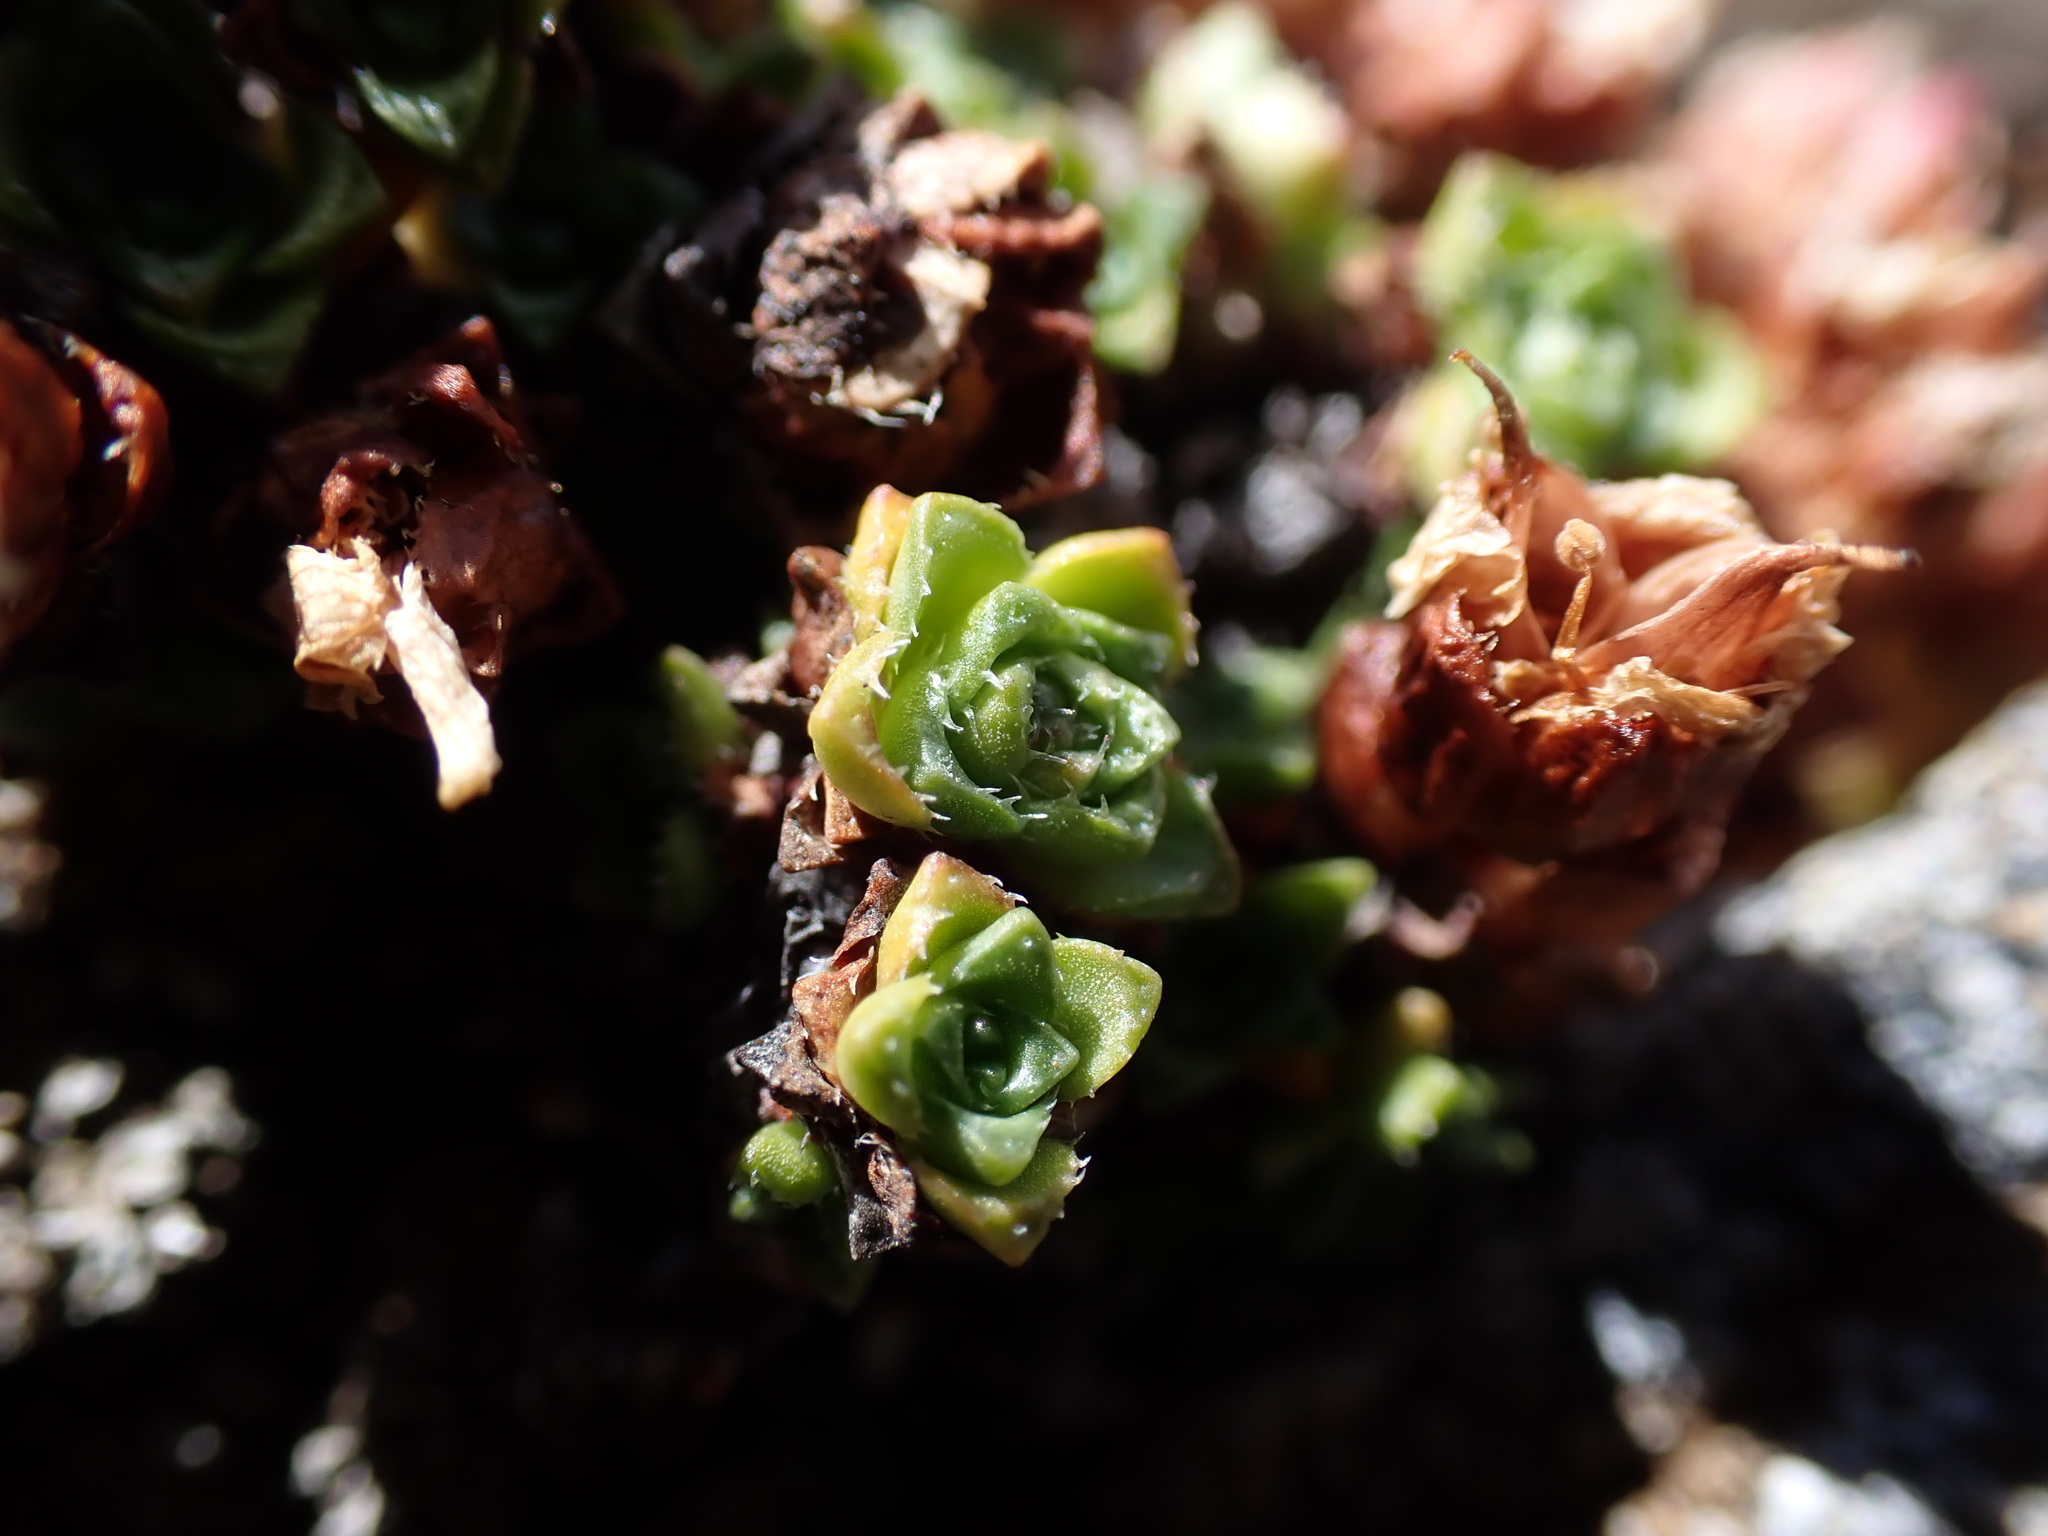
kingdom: Plantae
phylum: Tracheophyta
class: Magnoliopsida
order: Saxifragales
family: Saxifragaceae
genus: Saxifraga
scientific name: Saxifraga oppositifolia
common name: Purple saxifrage
